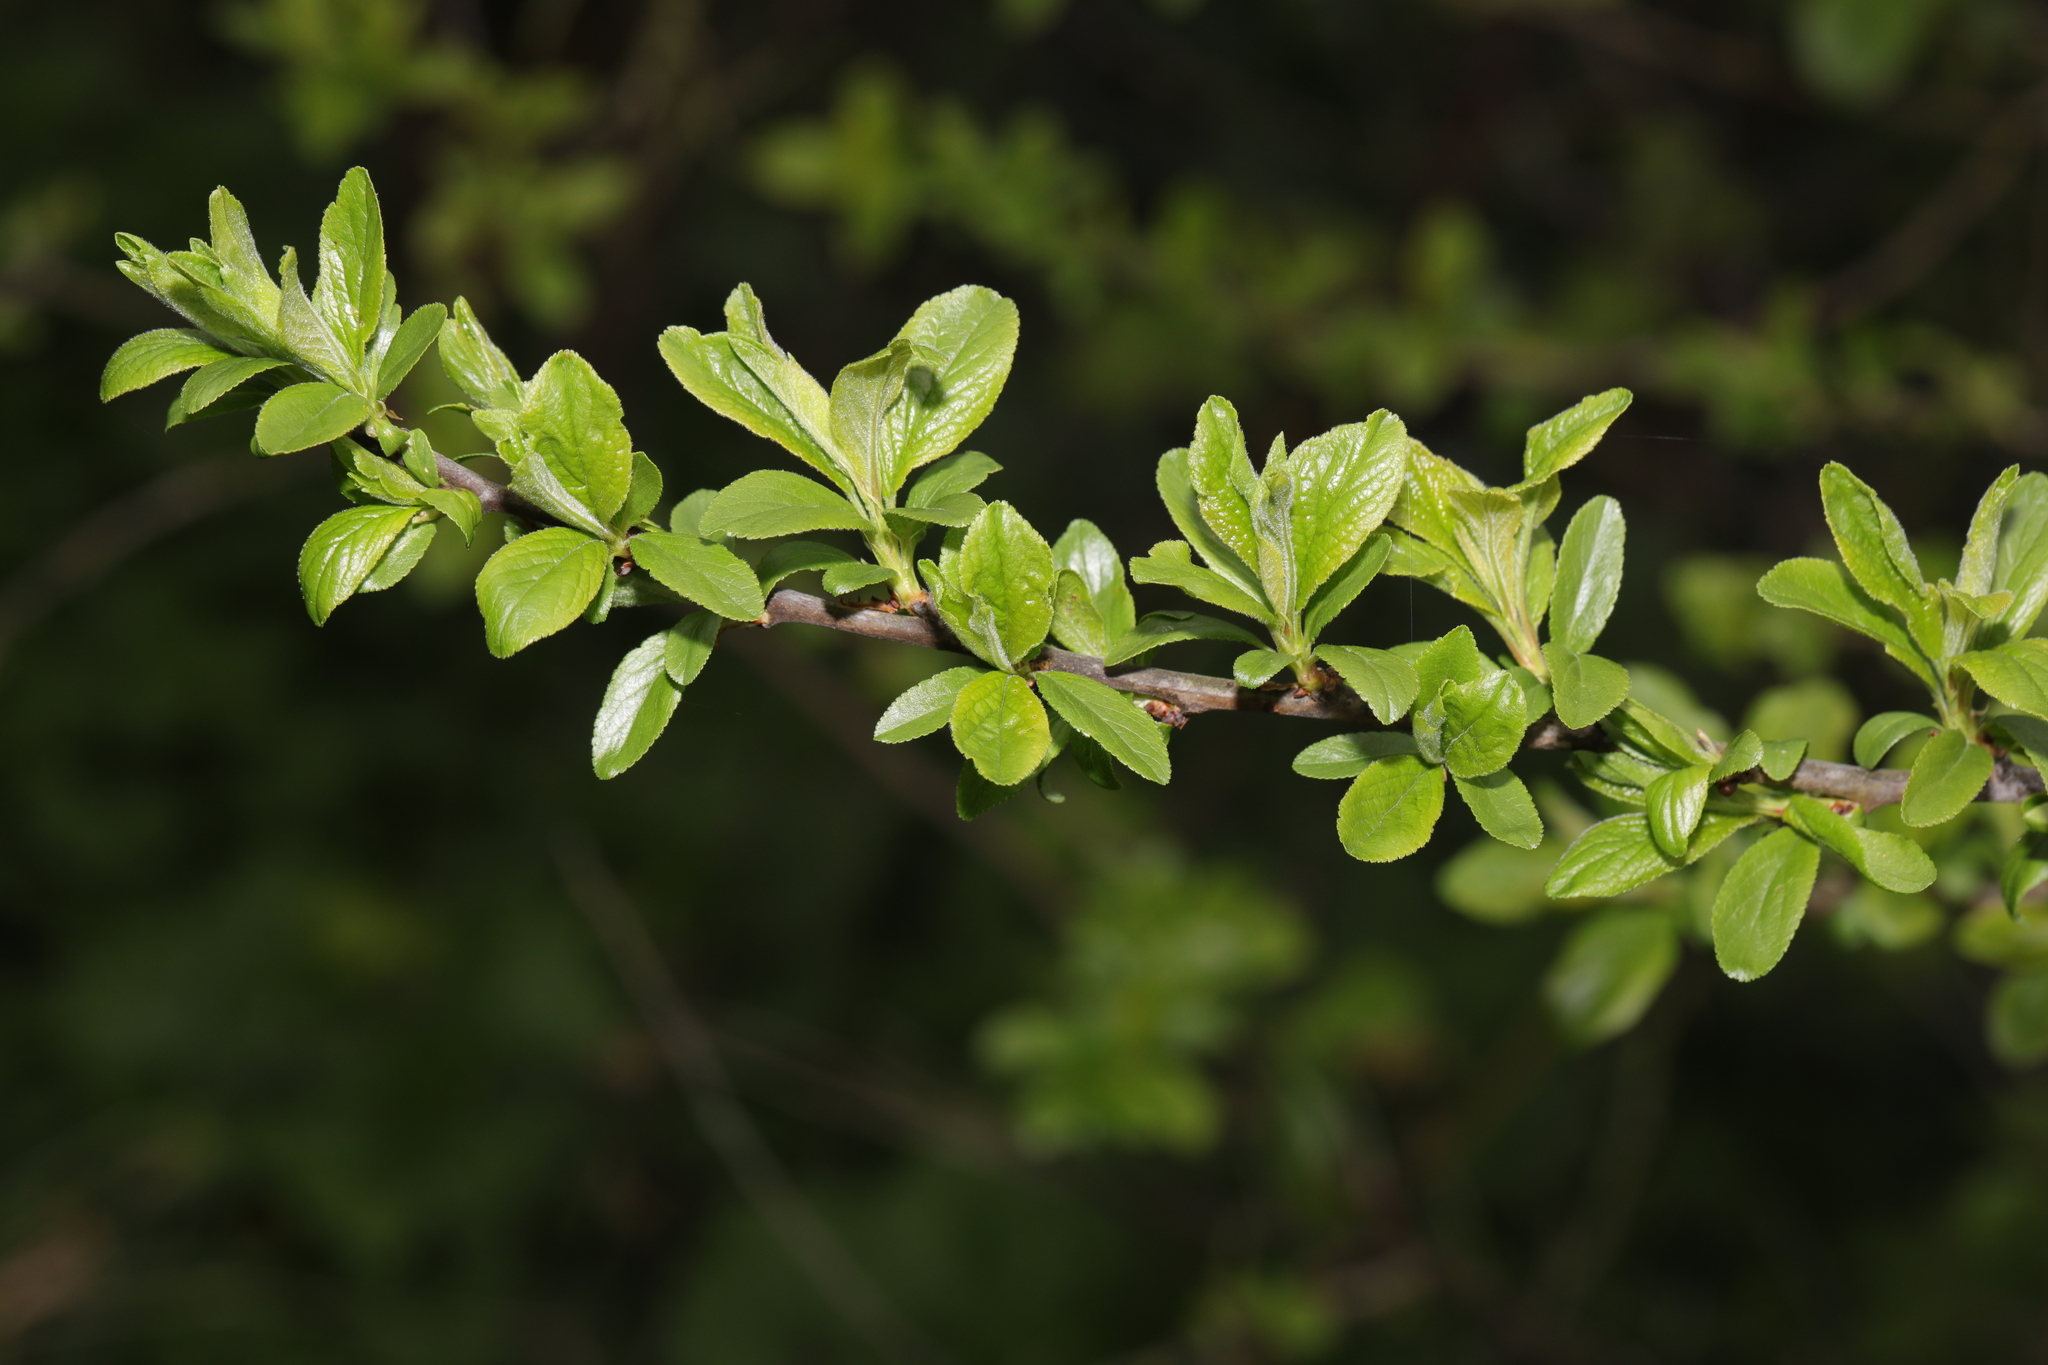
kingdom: Plantae
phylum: Tracheophyta
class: Magnoliopsida
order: Rosales
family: Rosaceae
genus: Prunus
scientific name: Prunus spinosa
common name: Blackthorn
